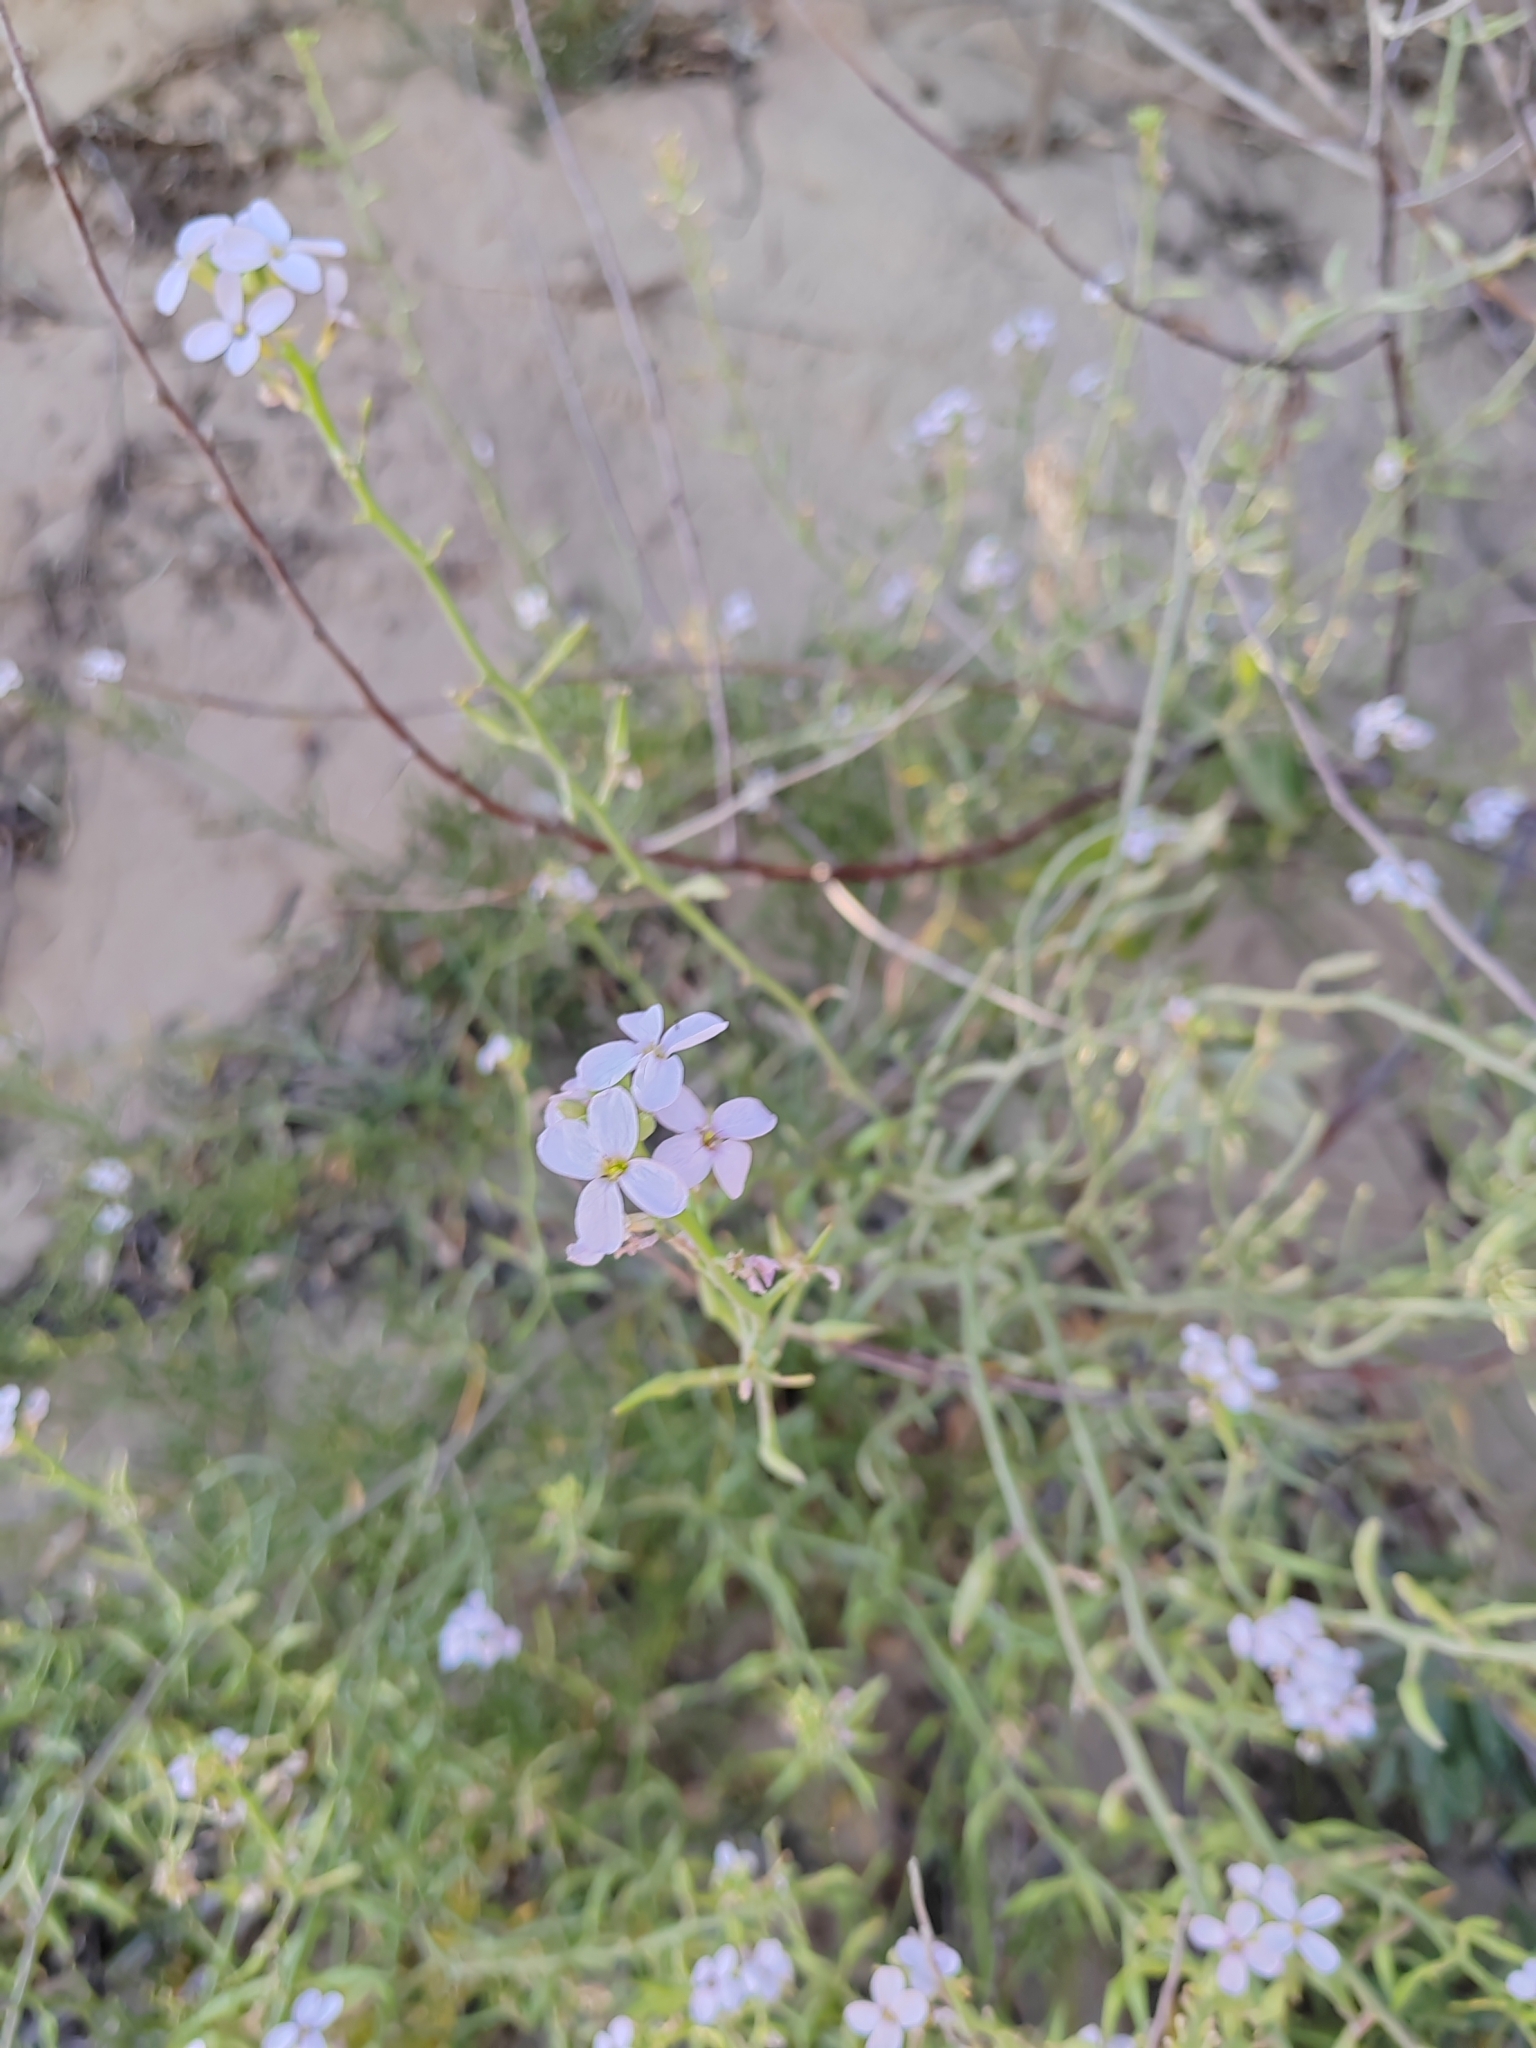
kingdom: Plantae
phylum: Tracheophyta
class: Magnoliopsida
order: Brassicales
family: Brassicaceae
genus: Cakile
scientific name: Cakile maritima
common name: Sea rocket
